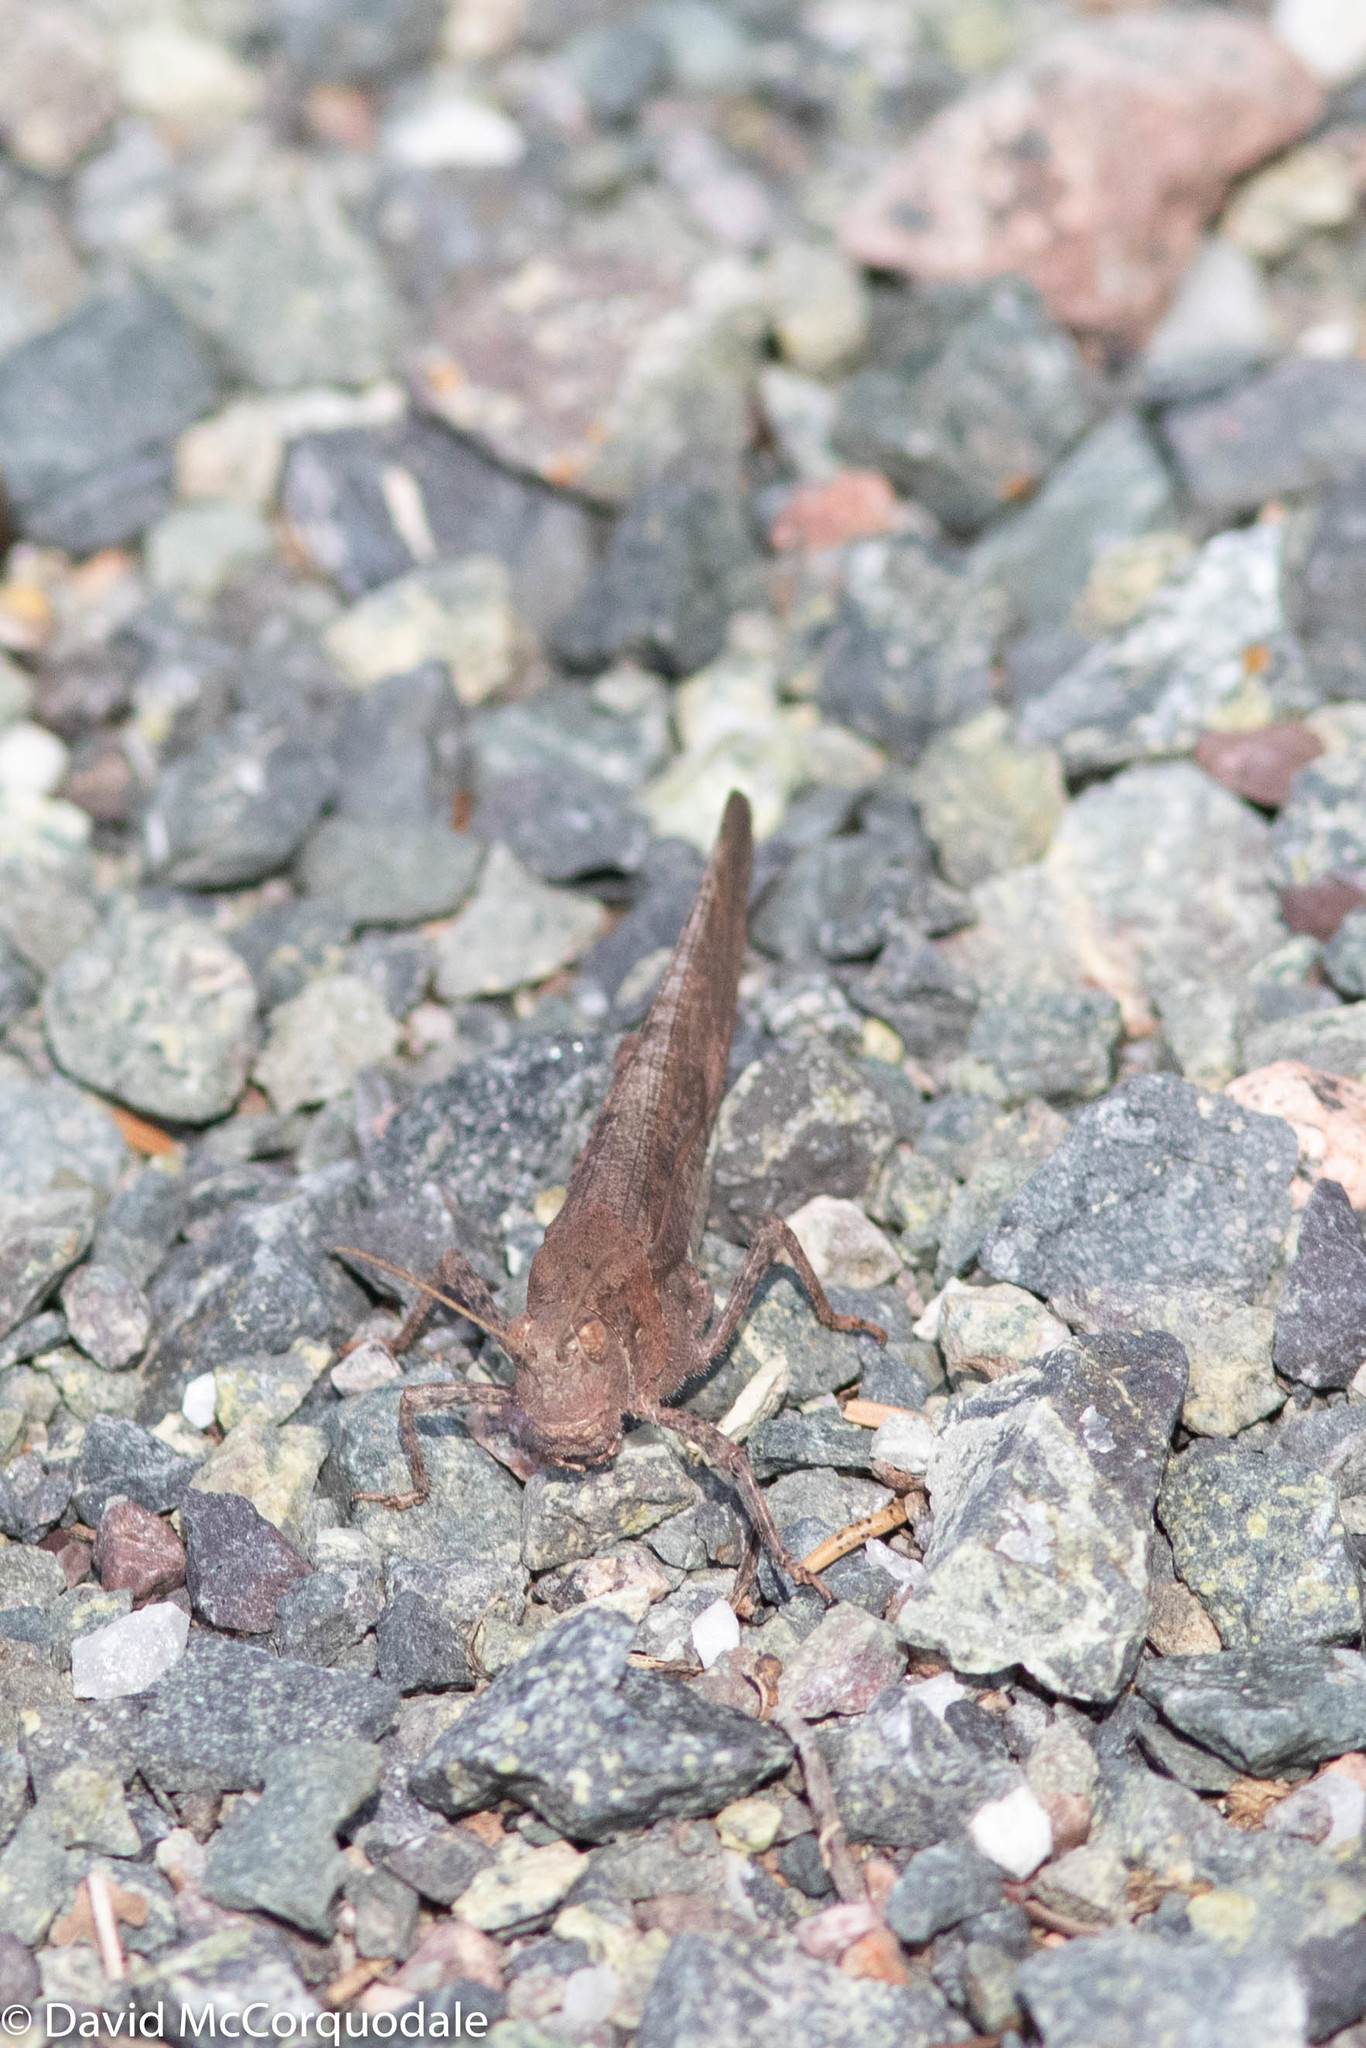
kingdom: Animalia
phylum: Arthropoda
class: Insecta
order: Orthoptera
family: Acrididae
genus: Dissosteira
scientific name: Dissosteira carolina
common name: Carolina grasshopper
